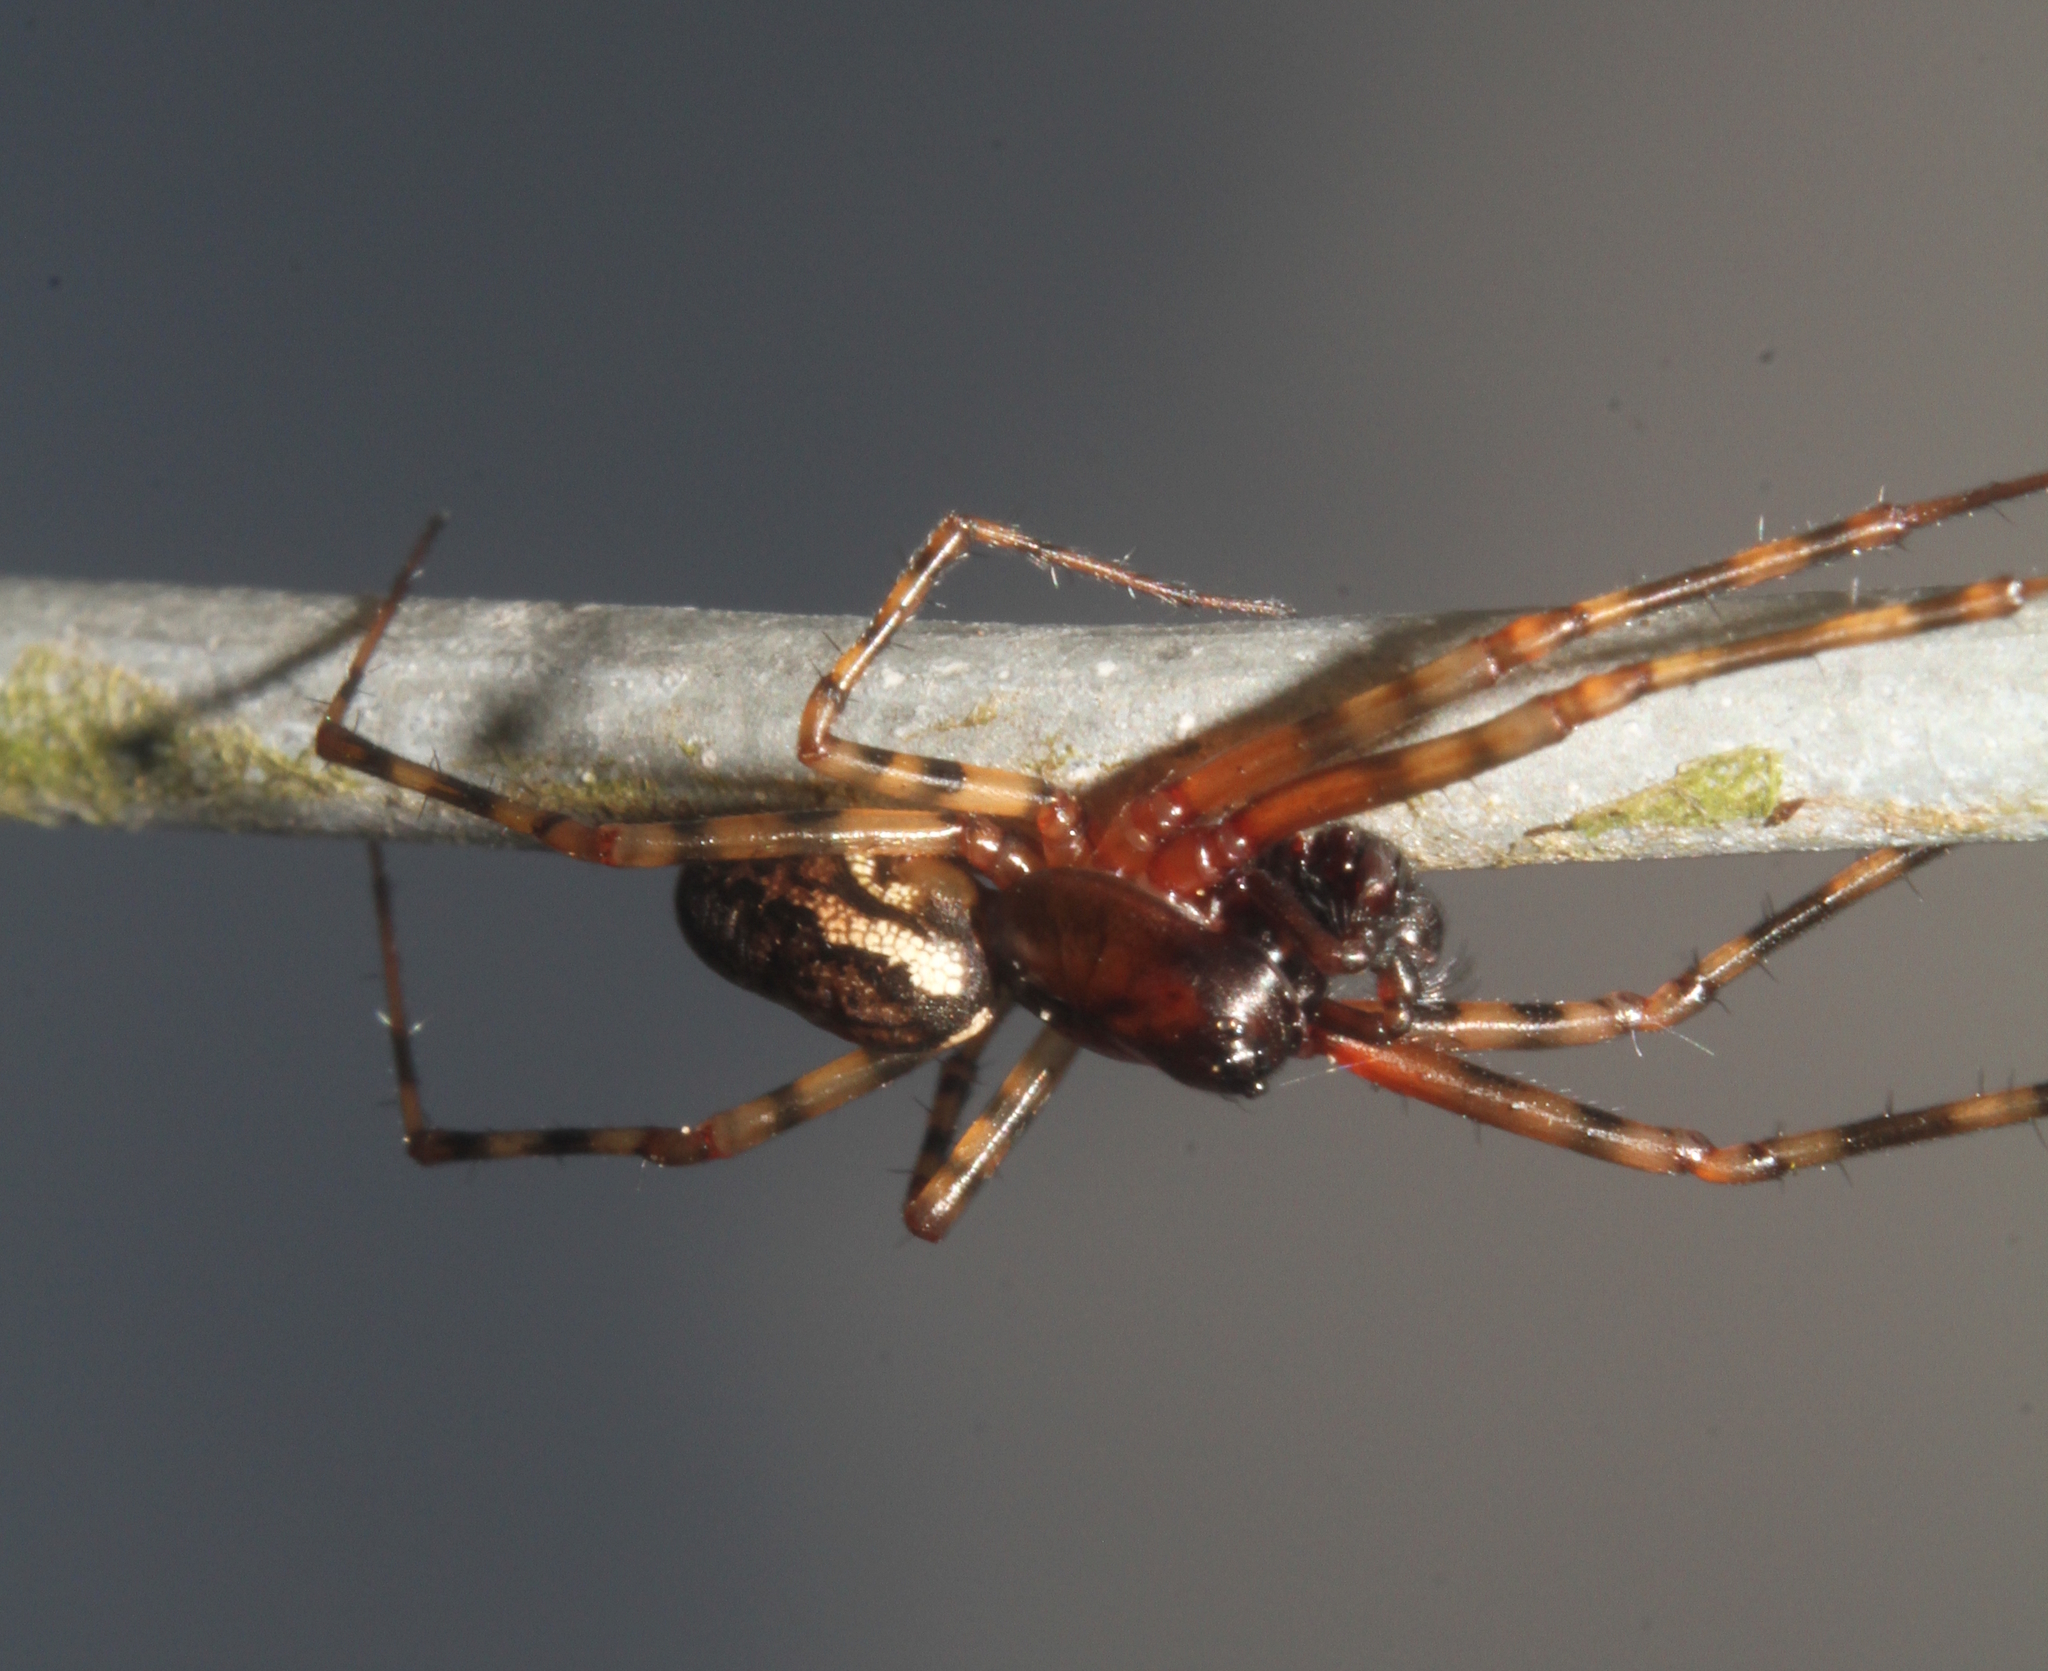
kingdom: Animalia
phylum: Arthropoda
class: Arachnida
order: Araneae
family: Linyphiidae
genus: Neriene
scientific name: Neriene montana
